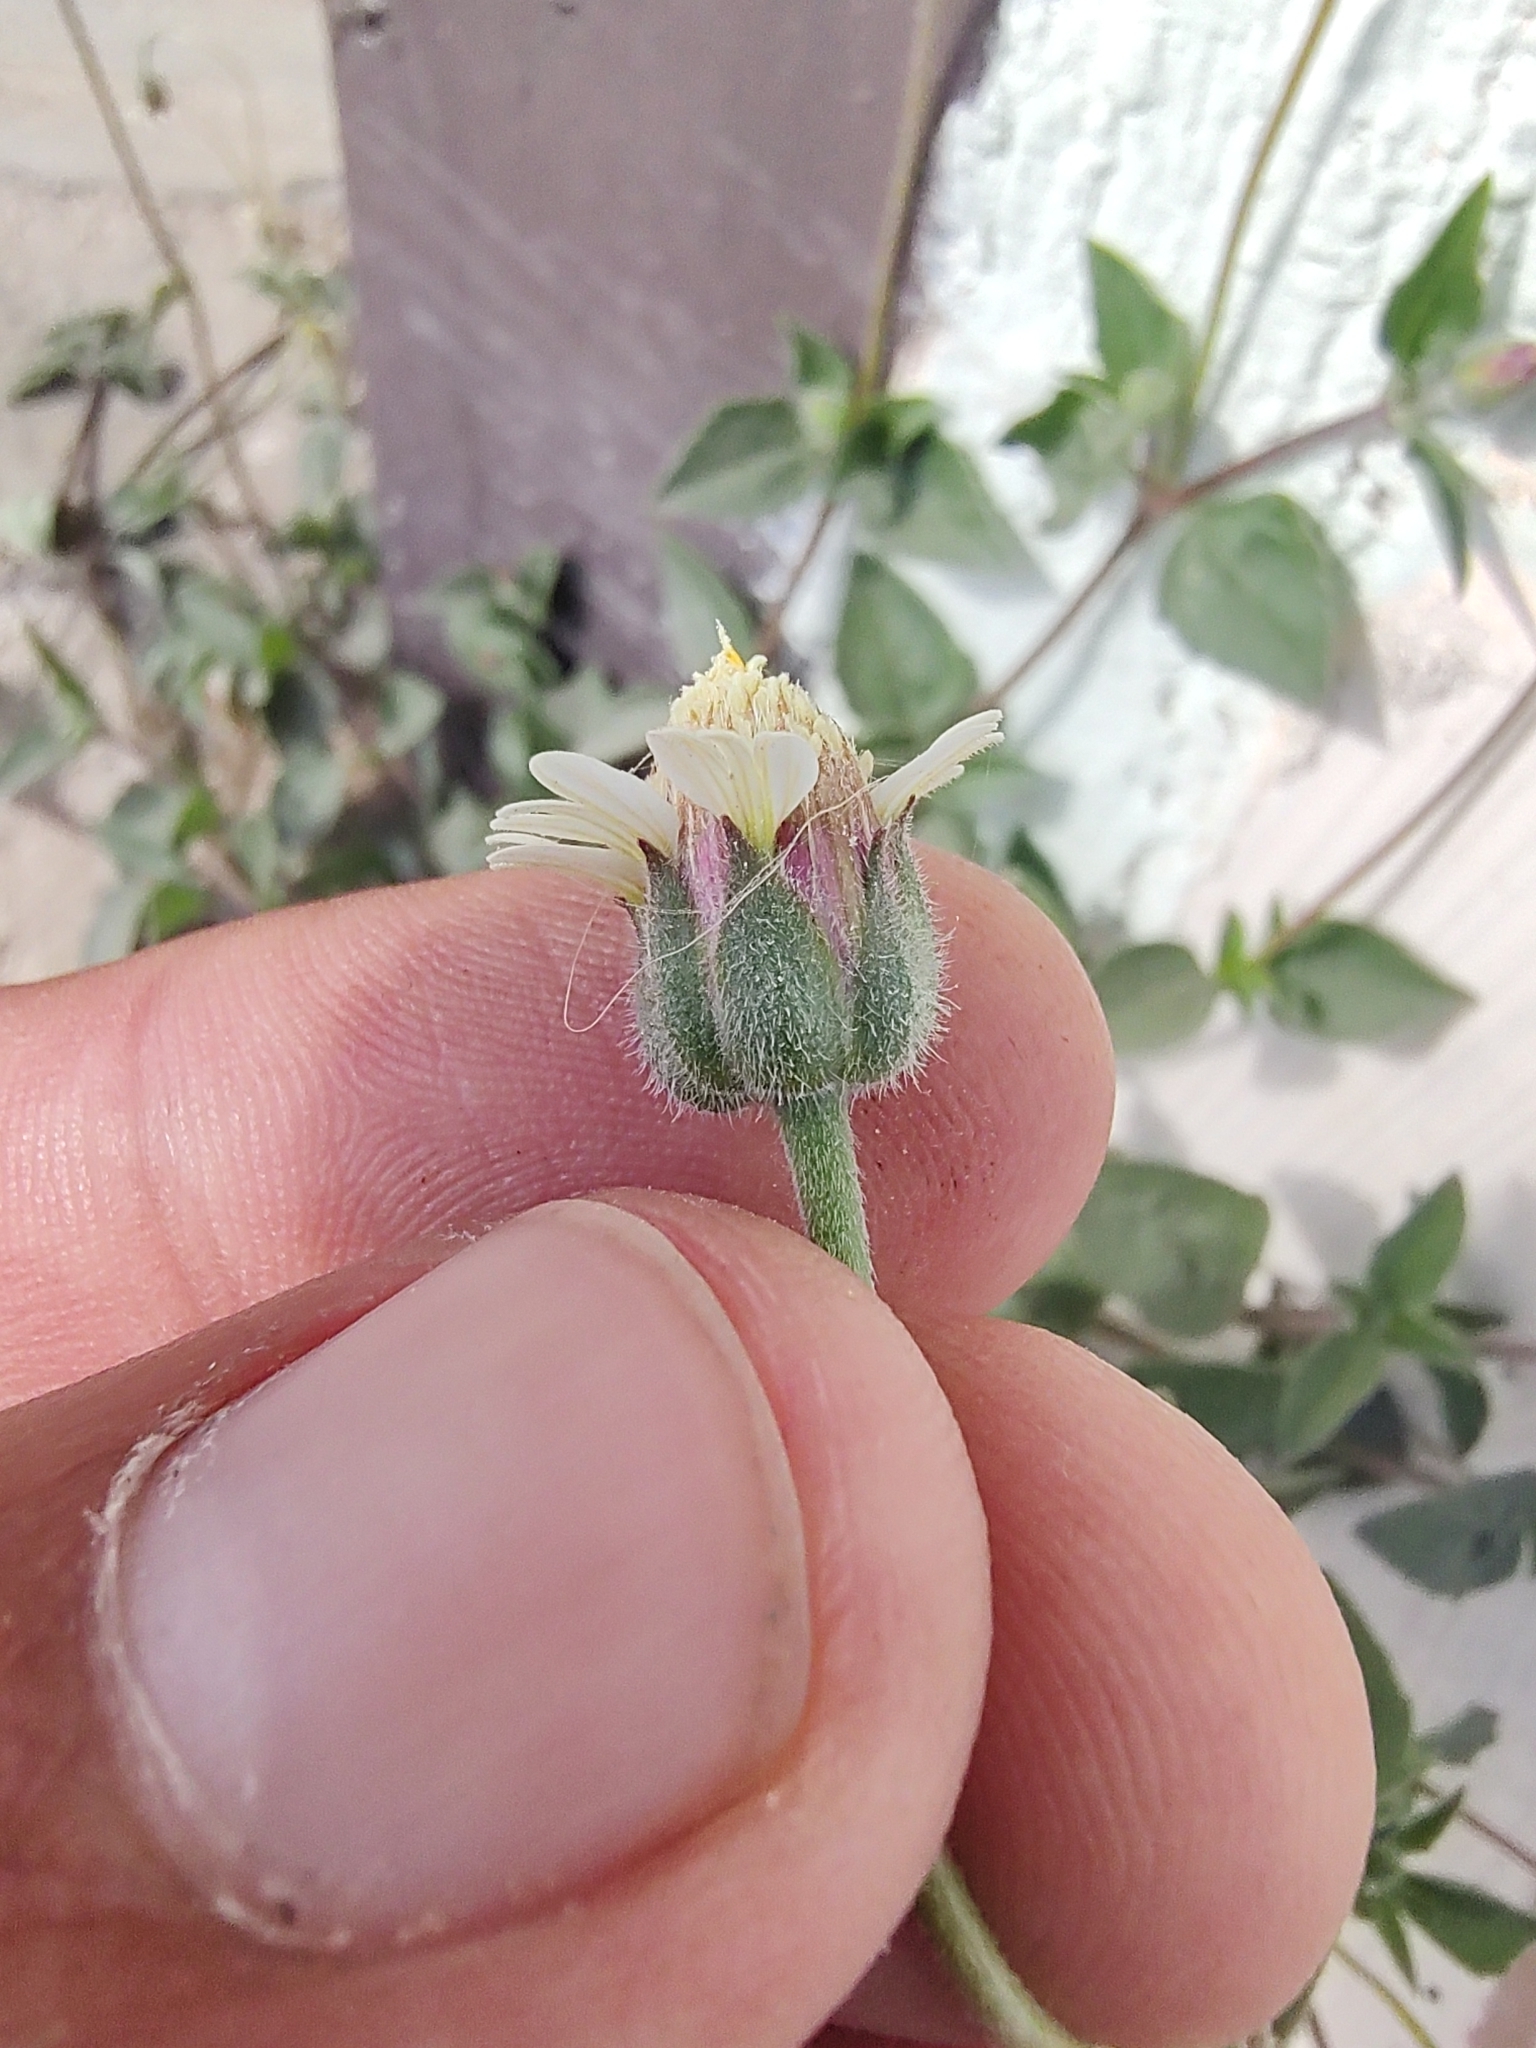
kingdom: Plantae
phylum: Tracheophyta
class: Magnoliopsida
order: Asterales
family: Asteraceae
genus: Tridax
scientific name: Tridax procumbens
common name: Coatbuttons
